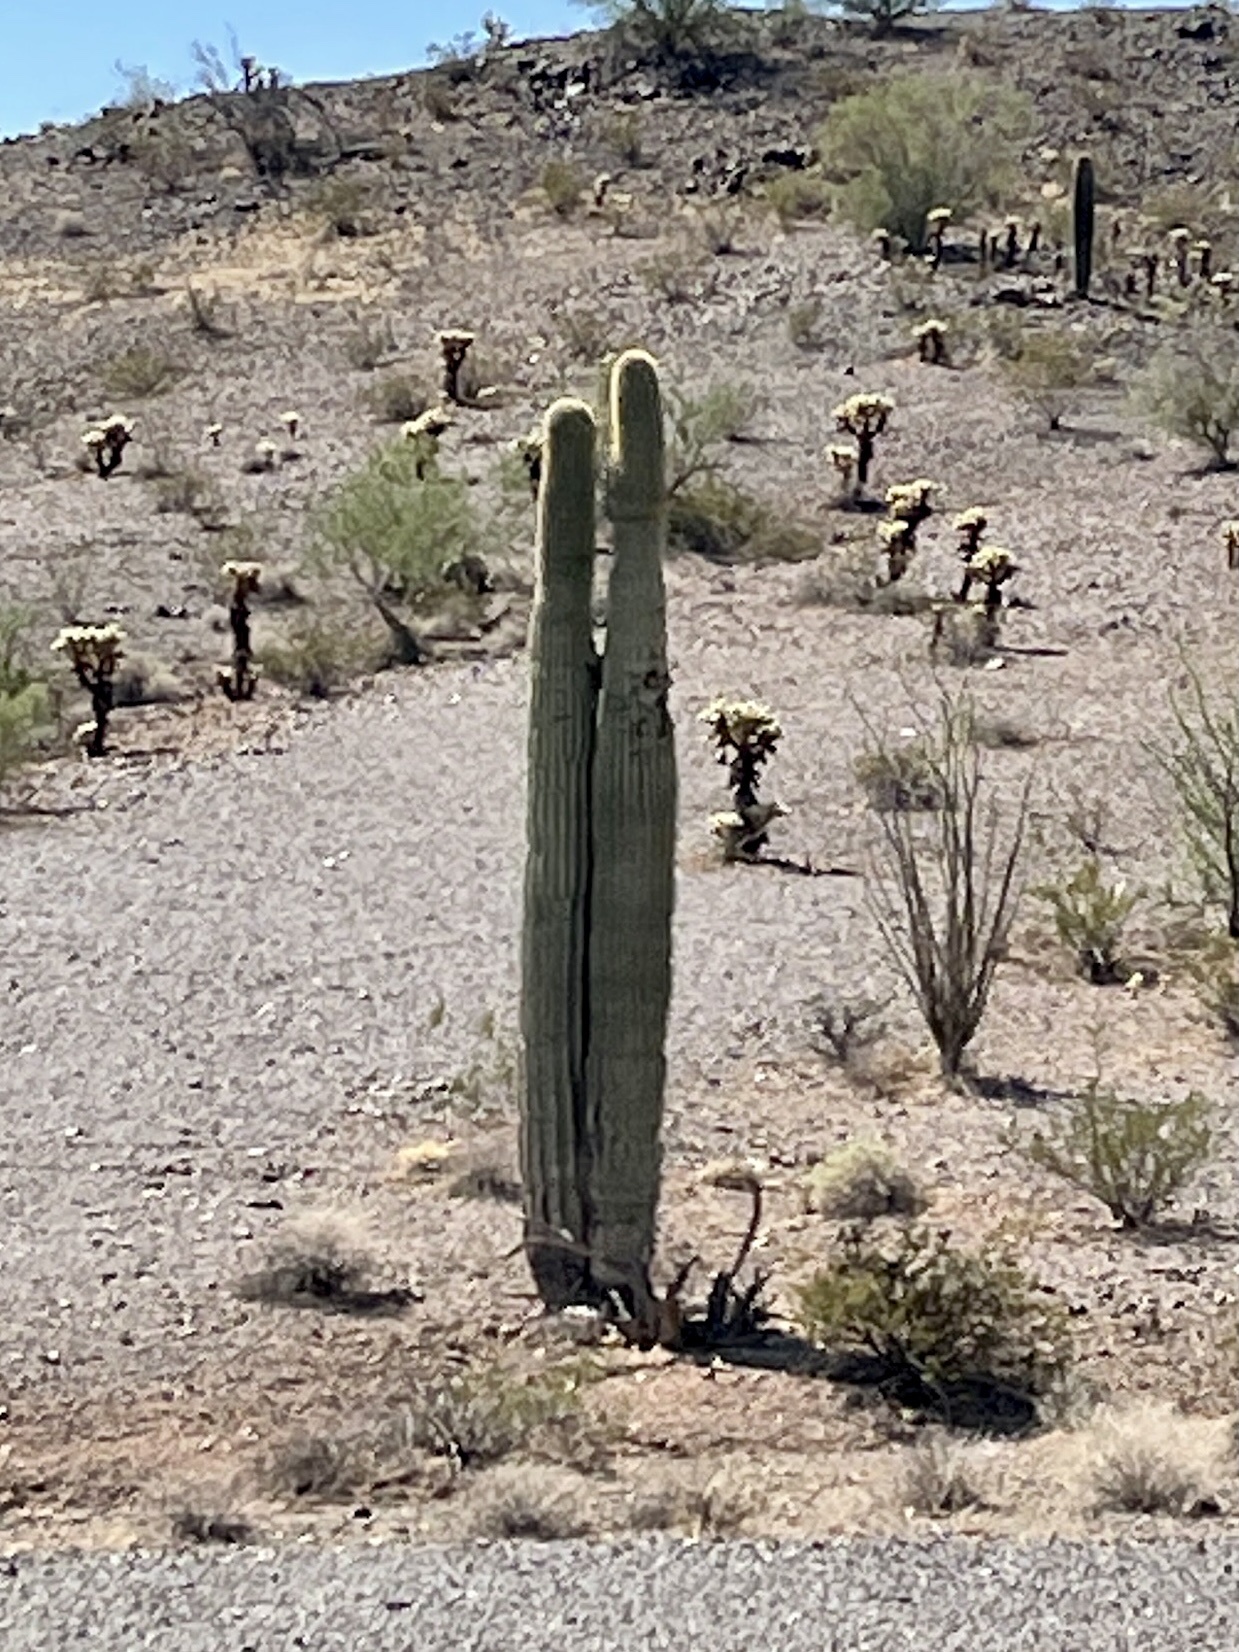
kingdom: Plantae
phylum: Tracheophyta
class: Magnoliopsida
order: Caryophyllales
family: Cactaceae
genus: Carnegiea
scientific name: Carnegiea gigantea
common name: Saguaro
